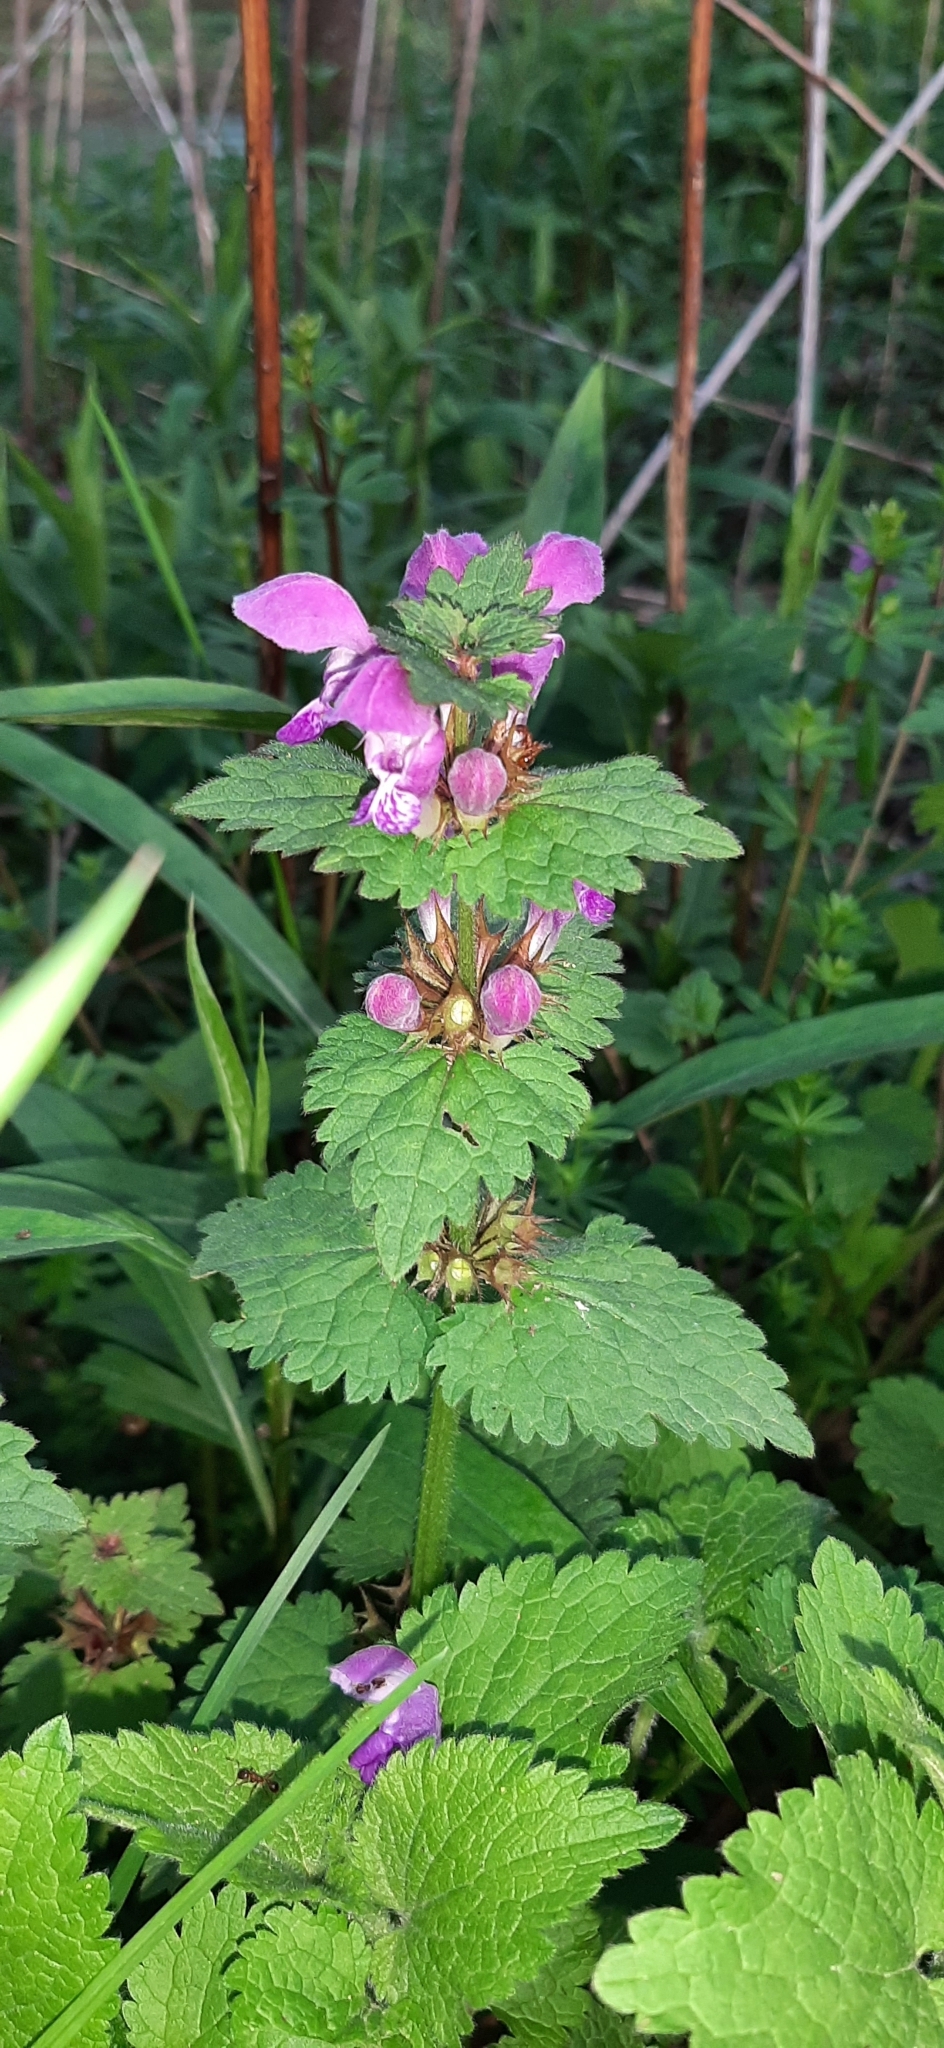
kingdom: Plantae
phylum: Tracheophyta
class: Magnoliopsida
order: Lamiales
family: Lamiaceae
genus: Lamium
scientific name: Lamium maculatum
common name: Spotted dead-nettle
